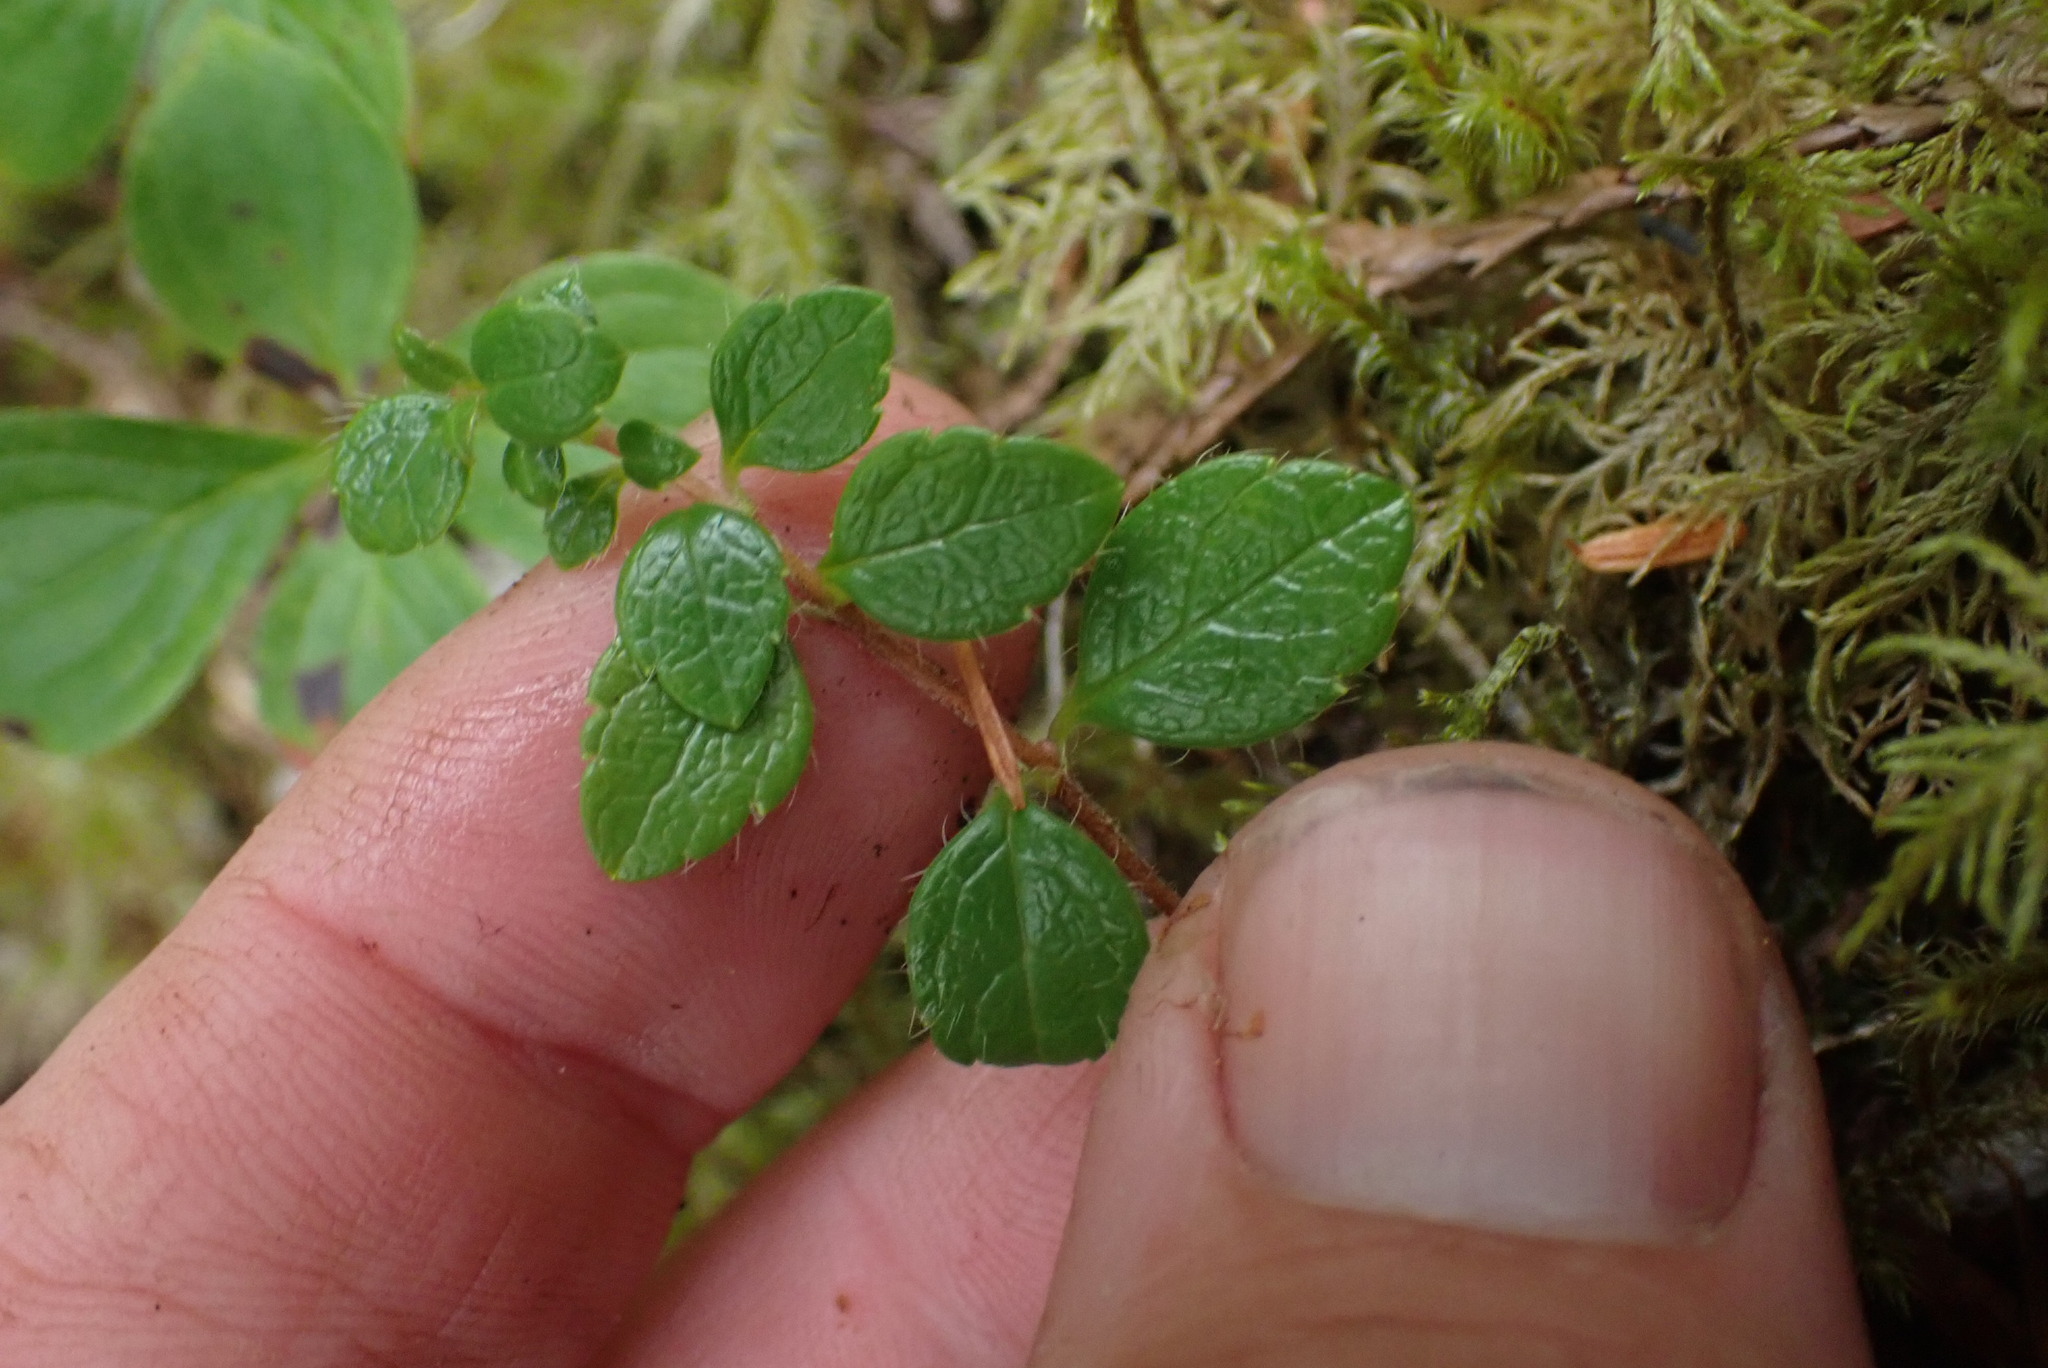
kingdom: Plantae
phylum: Tracheophyta
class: Magnoliopsida
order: Dipsacales
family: Caprifoliaceae
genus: Linnaea
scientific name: Linnaea borealis
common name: Twinflower
